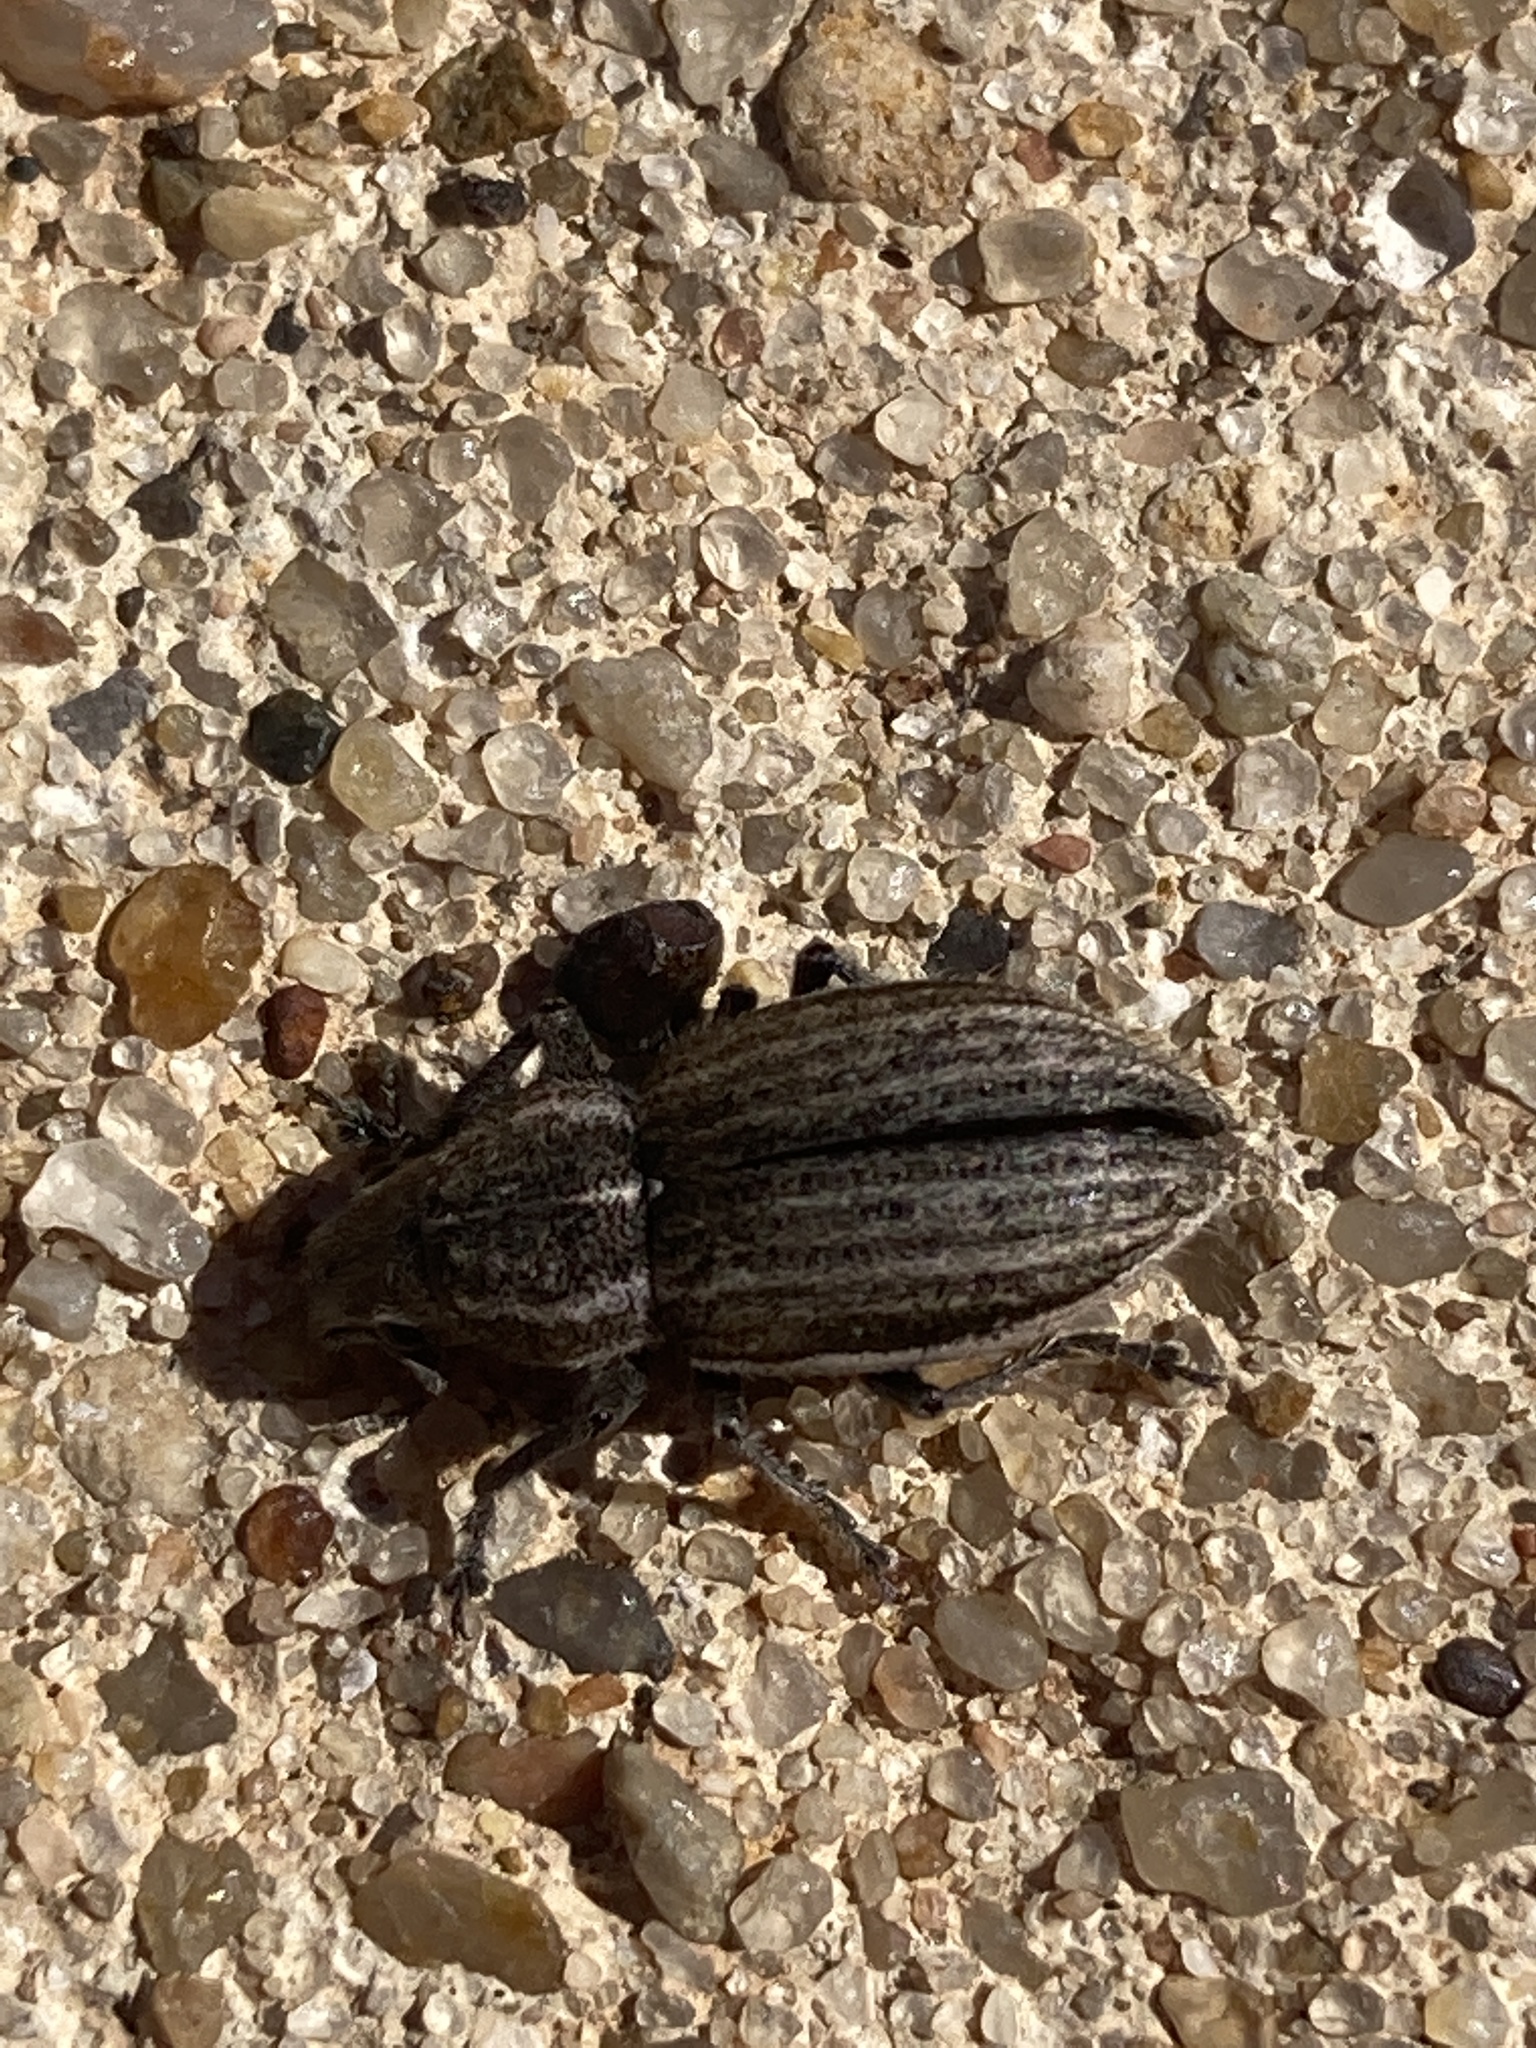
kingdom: Animalia
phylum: Arthropoda
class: Insecta
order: Coleoptera
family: Curculionidae
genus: Naupactus
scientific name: Naupactus leucoloma
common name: Whitefringed beetle
